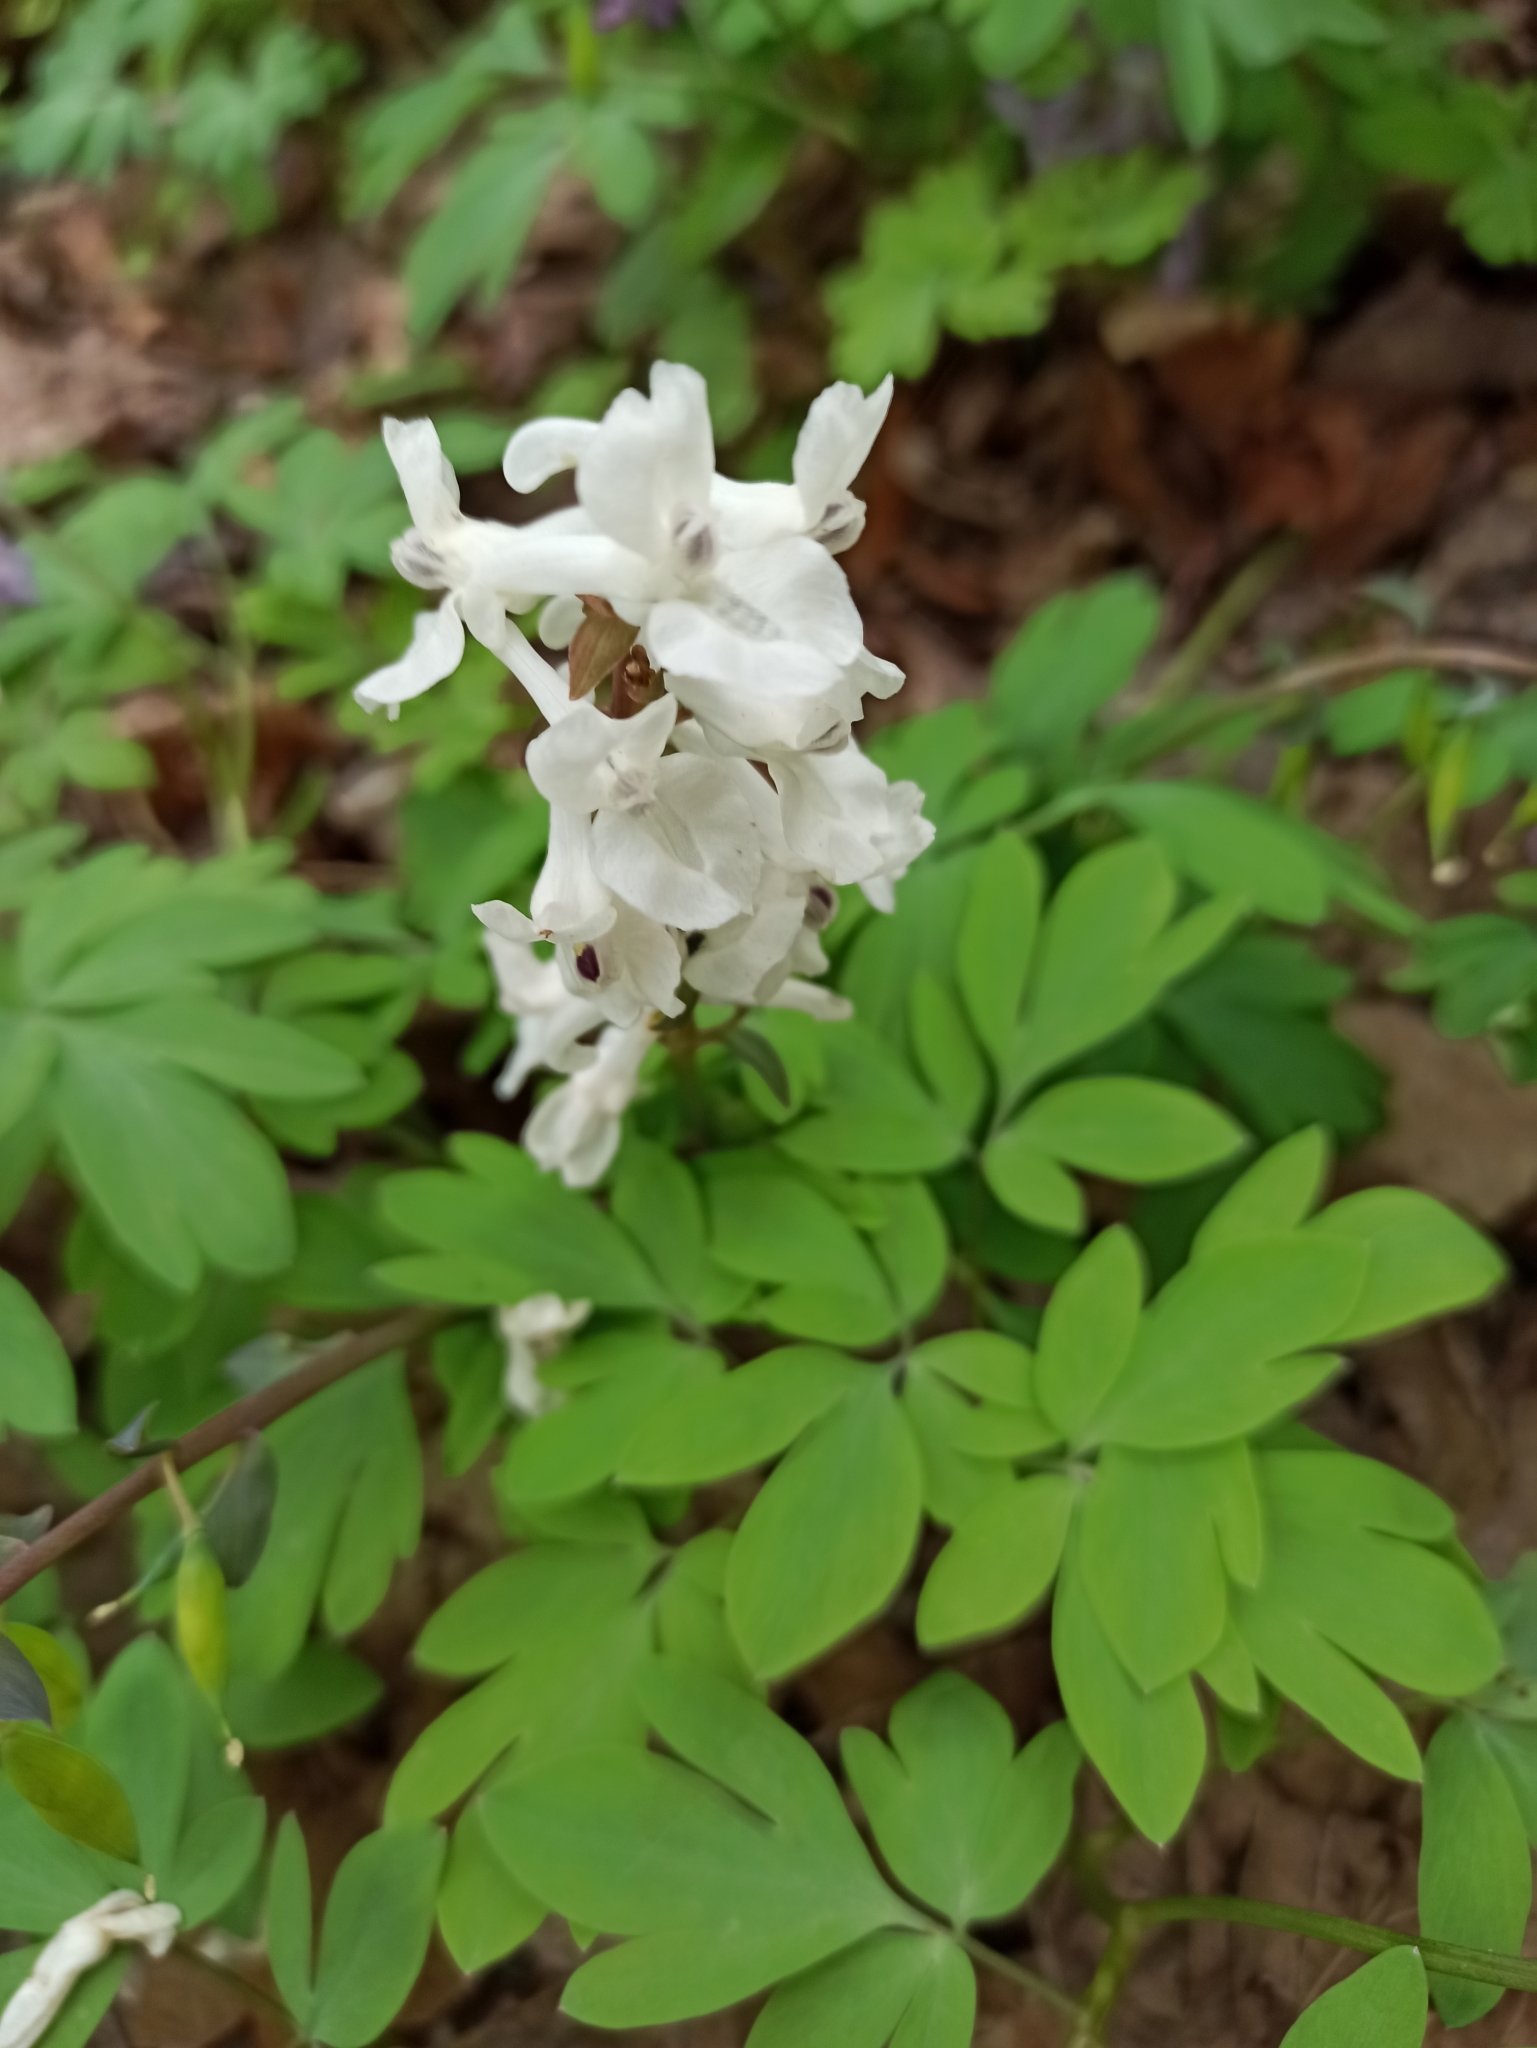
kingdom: Plantae
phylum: Tracheophyta
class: Magnoliopsida
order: Ranunculales
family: Papaveraceae
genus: Corydalis
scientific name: Corydalis cava
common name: Hollowroot
